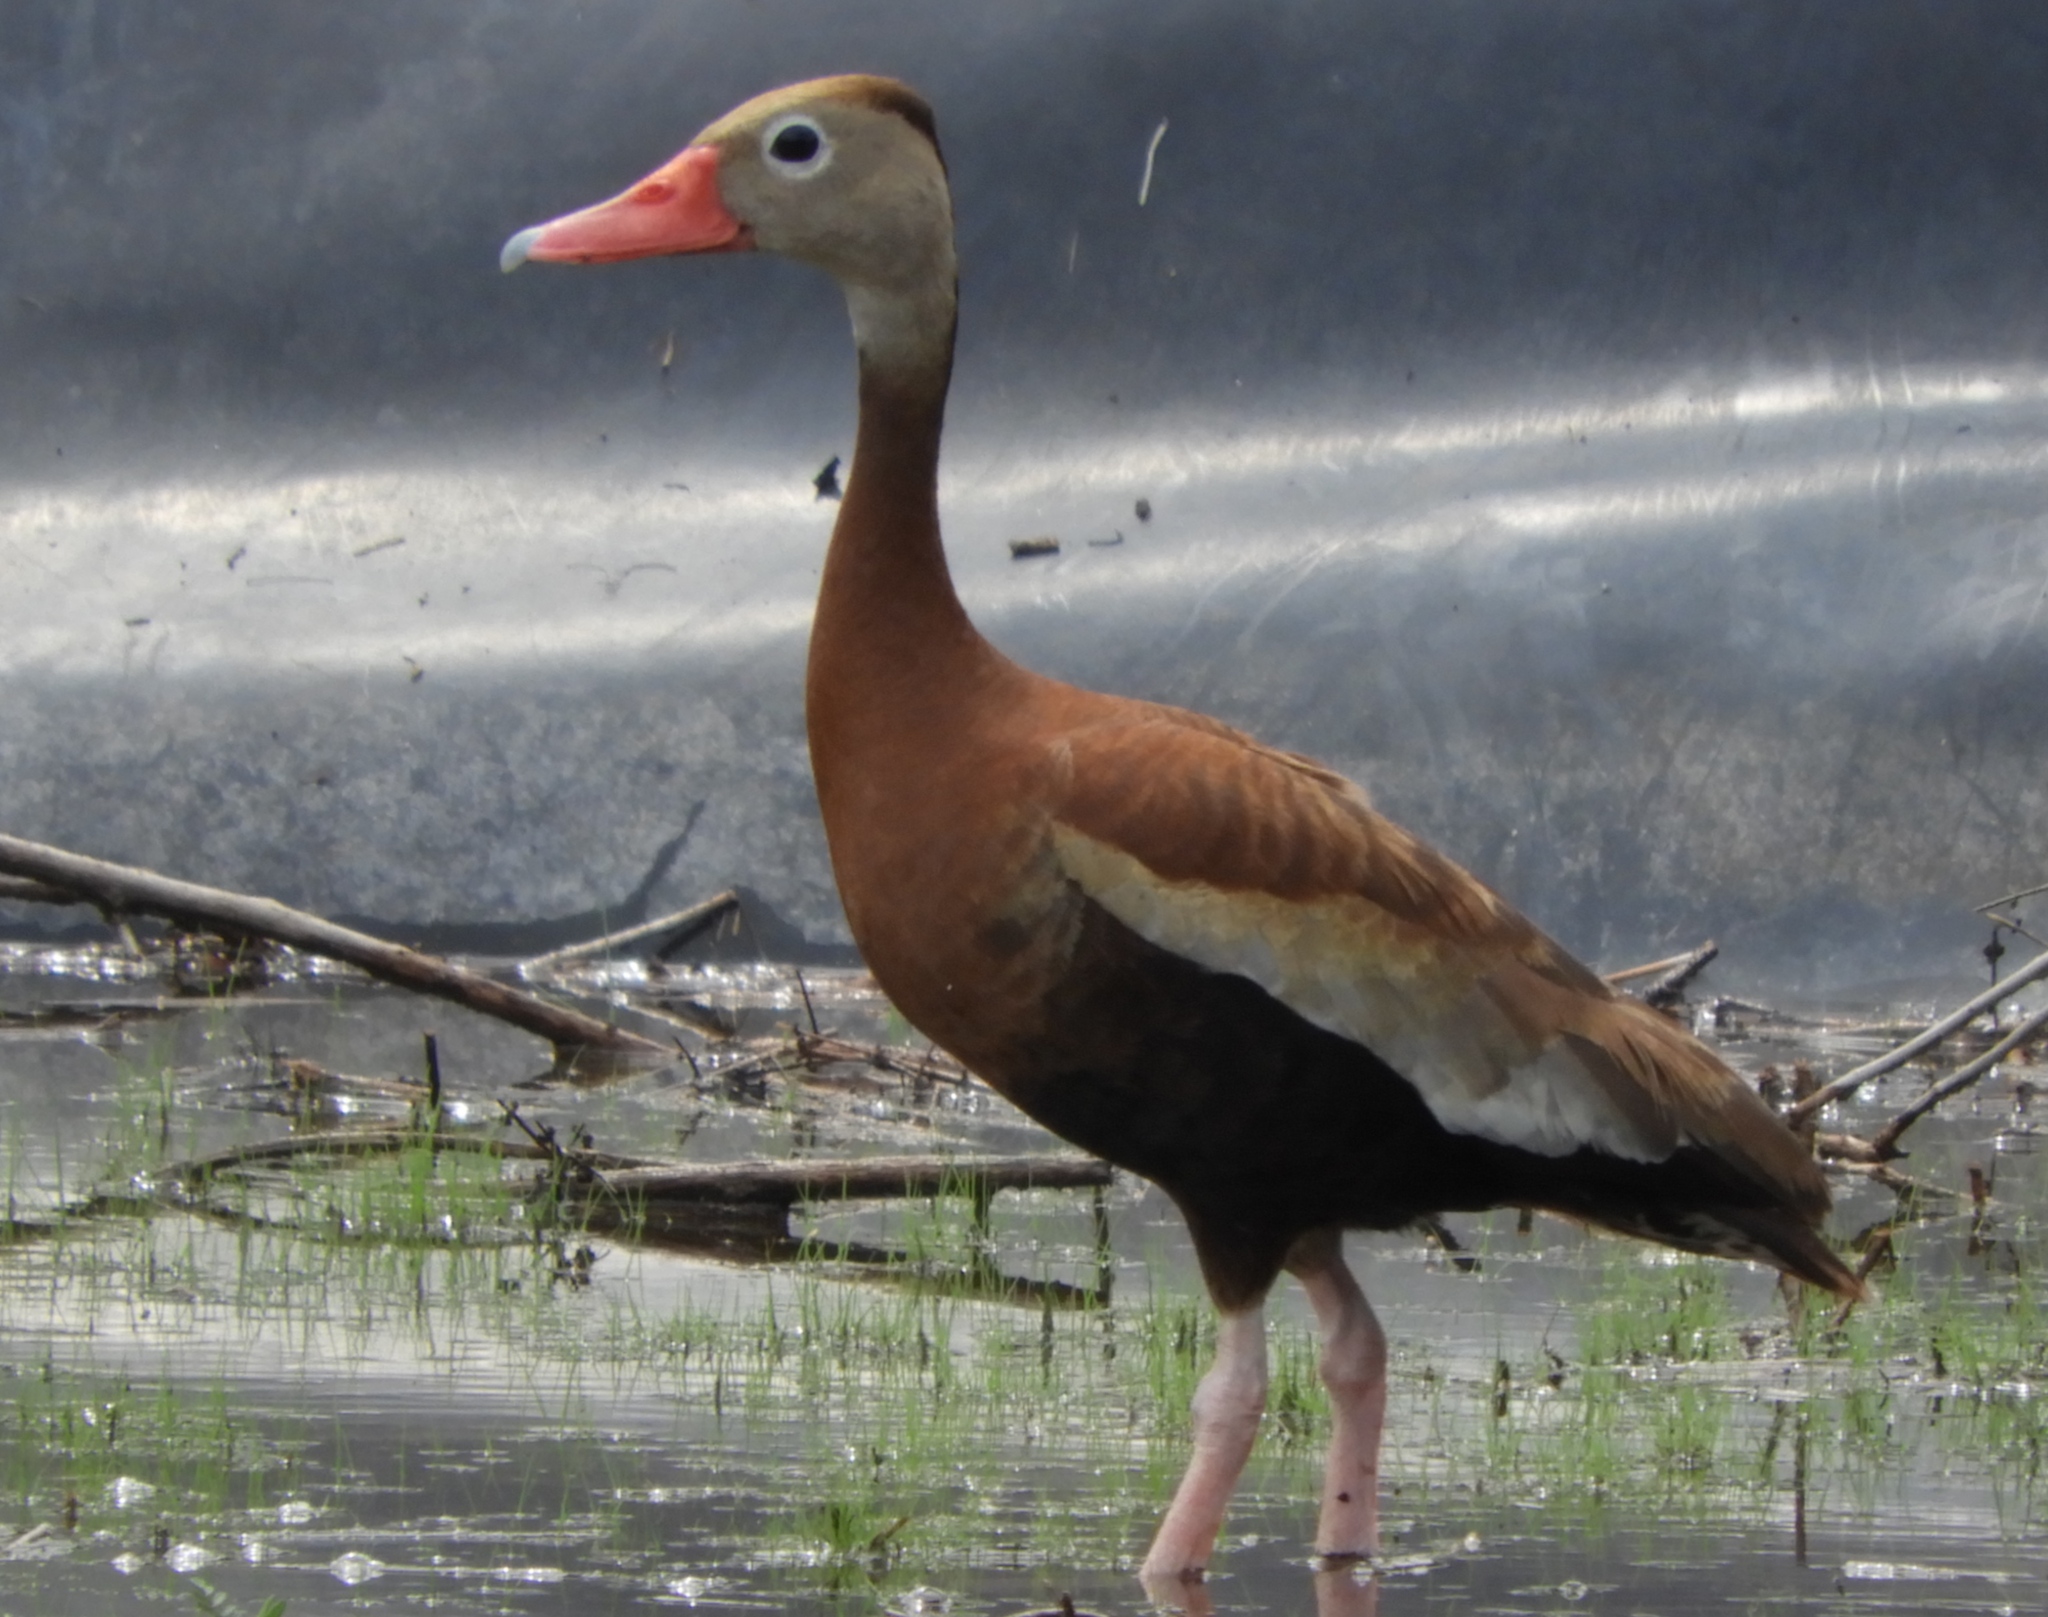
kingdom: Animalia
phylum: Chordata
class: Aves
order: Anseriformes
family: Anatidae
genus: Dendrocygna
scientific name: Dendrocygna autumnalis
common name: Black-bellied whistling duck
